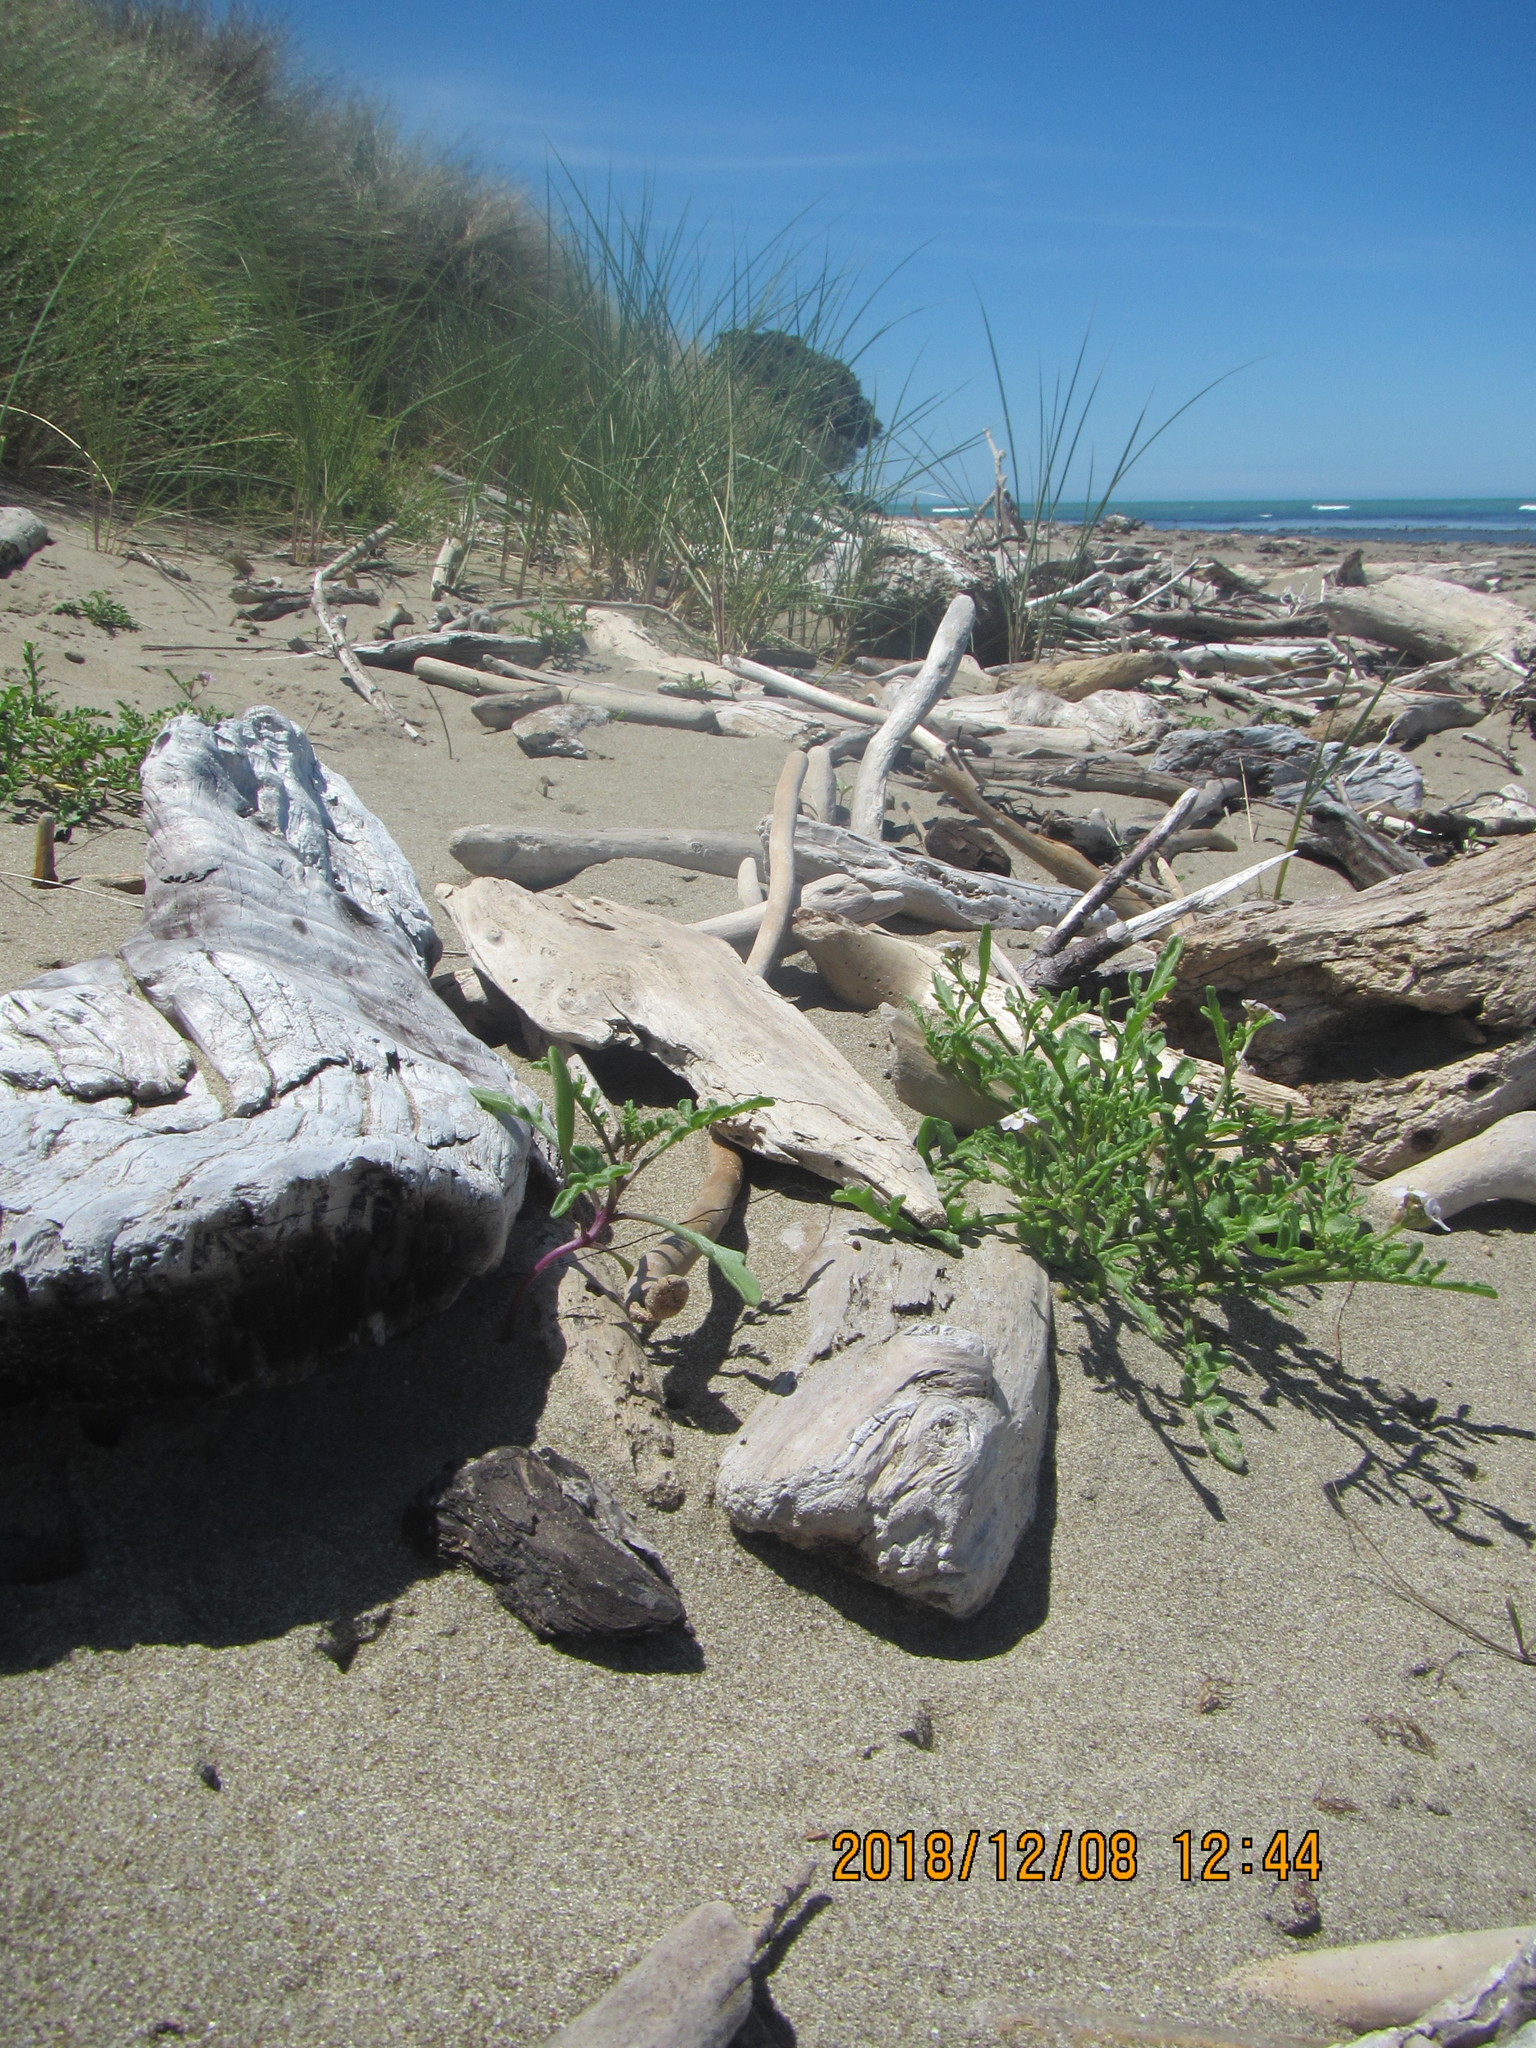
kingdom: Plantae
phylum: Tracheophyta
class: Magnoliopsida
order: Brassicales
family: Brassicaceae
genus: Cakile
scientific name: Cakile maritima
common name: Sea rocket
